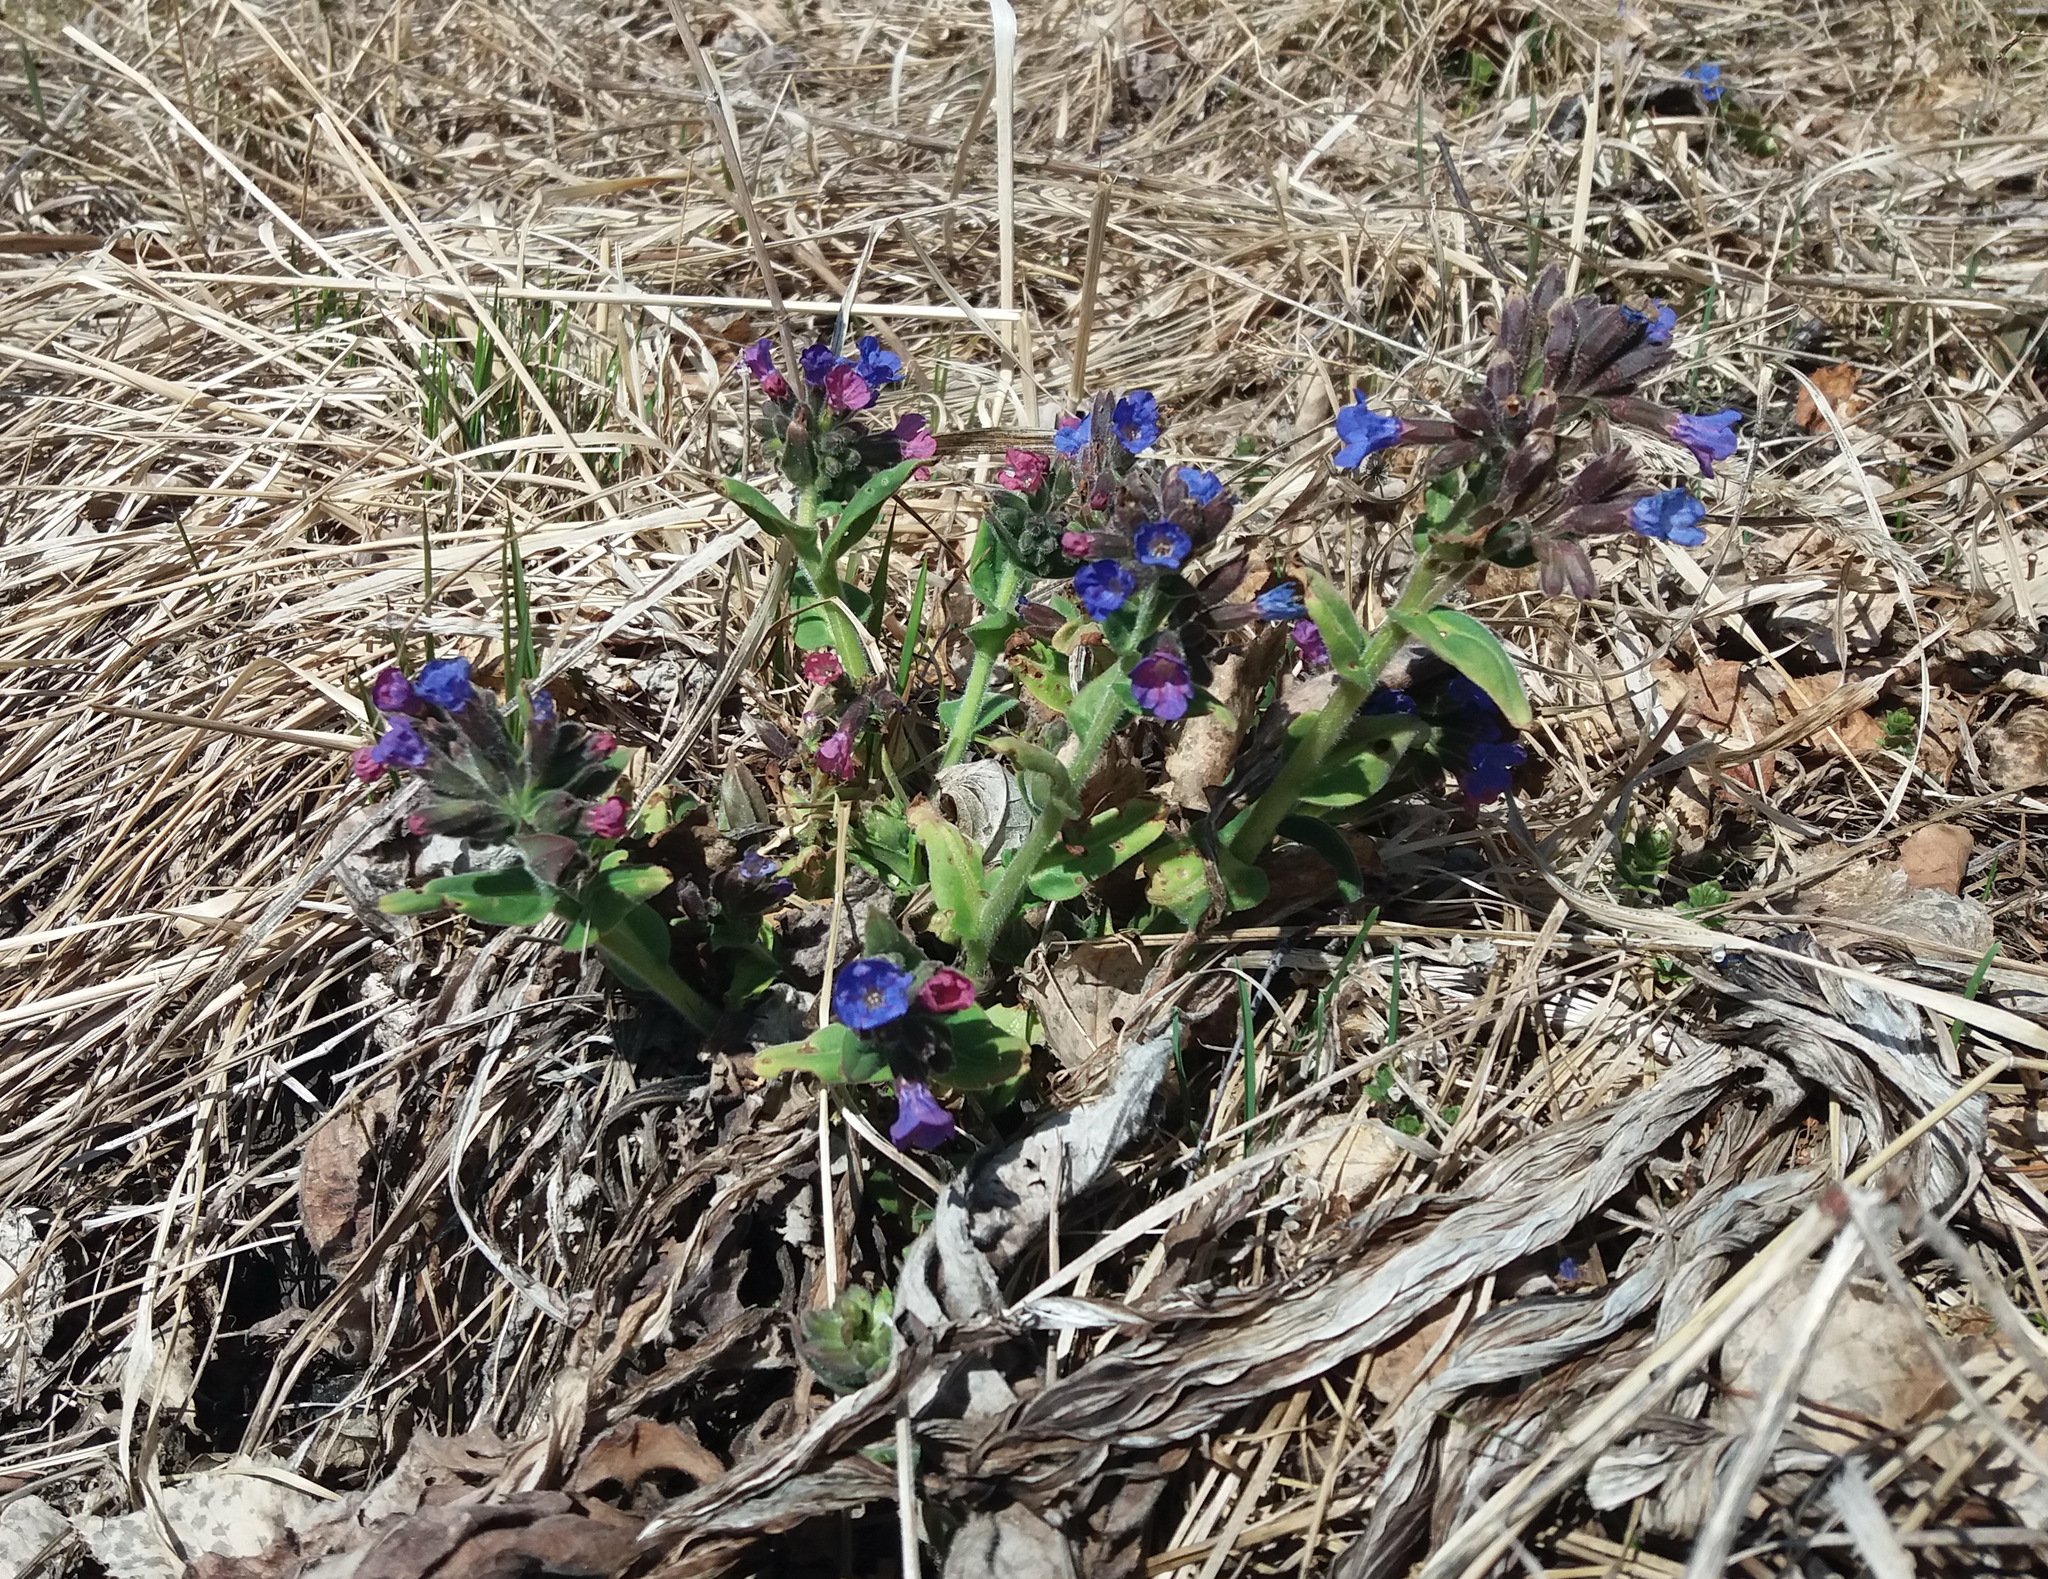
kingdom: Plantae
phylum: Tracheophyta
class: Magnoliopsida
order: Boraginales
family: Boraginaceae
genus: Pulmonaria
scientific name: Pulmonaria mollis
